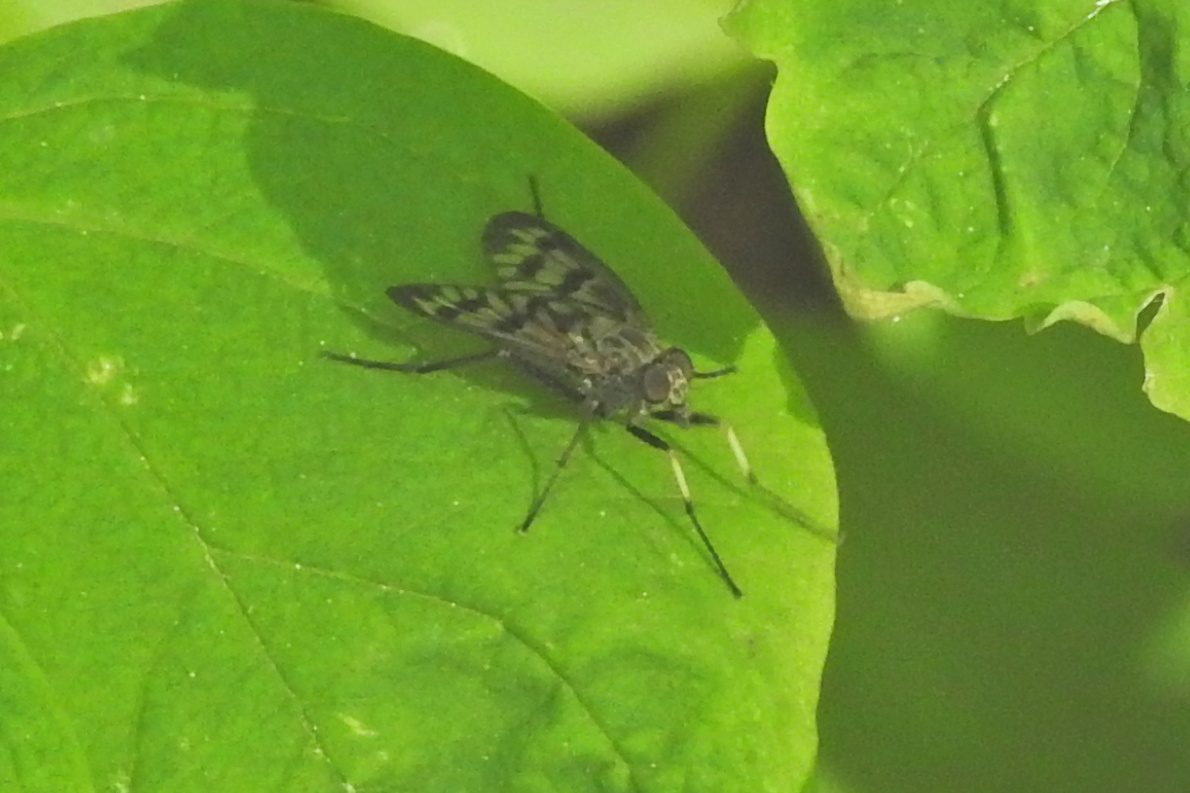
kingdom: Animalia
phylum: Arthropoda
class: Insecta
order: Diptera
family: Rhagionidae
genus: Rhagio
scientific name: Rhagio mystaceus
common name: Common snipe fly
